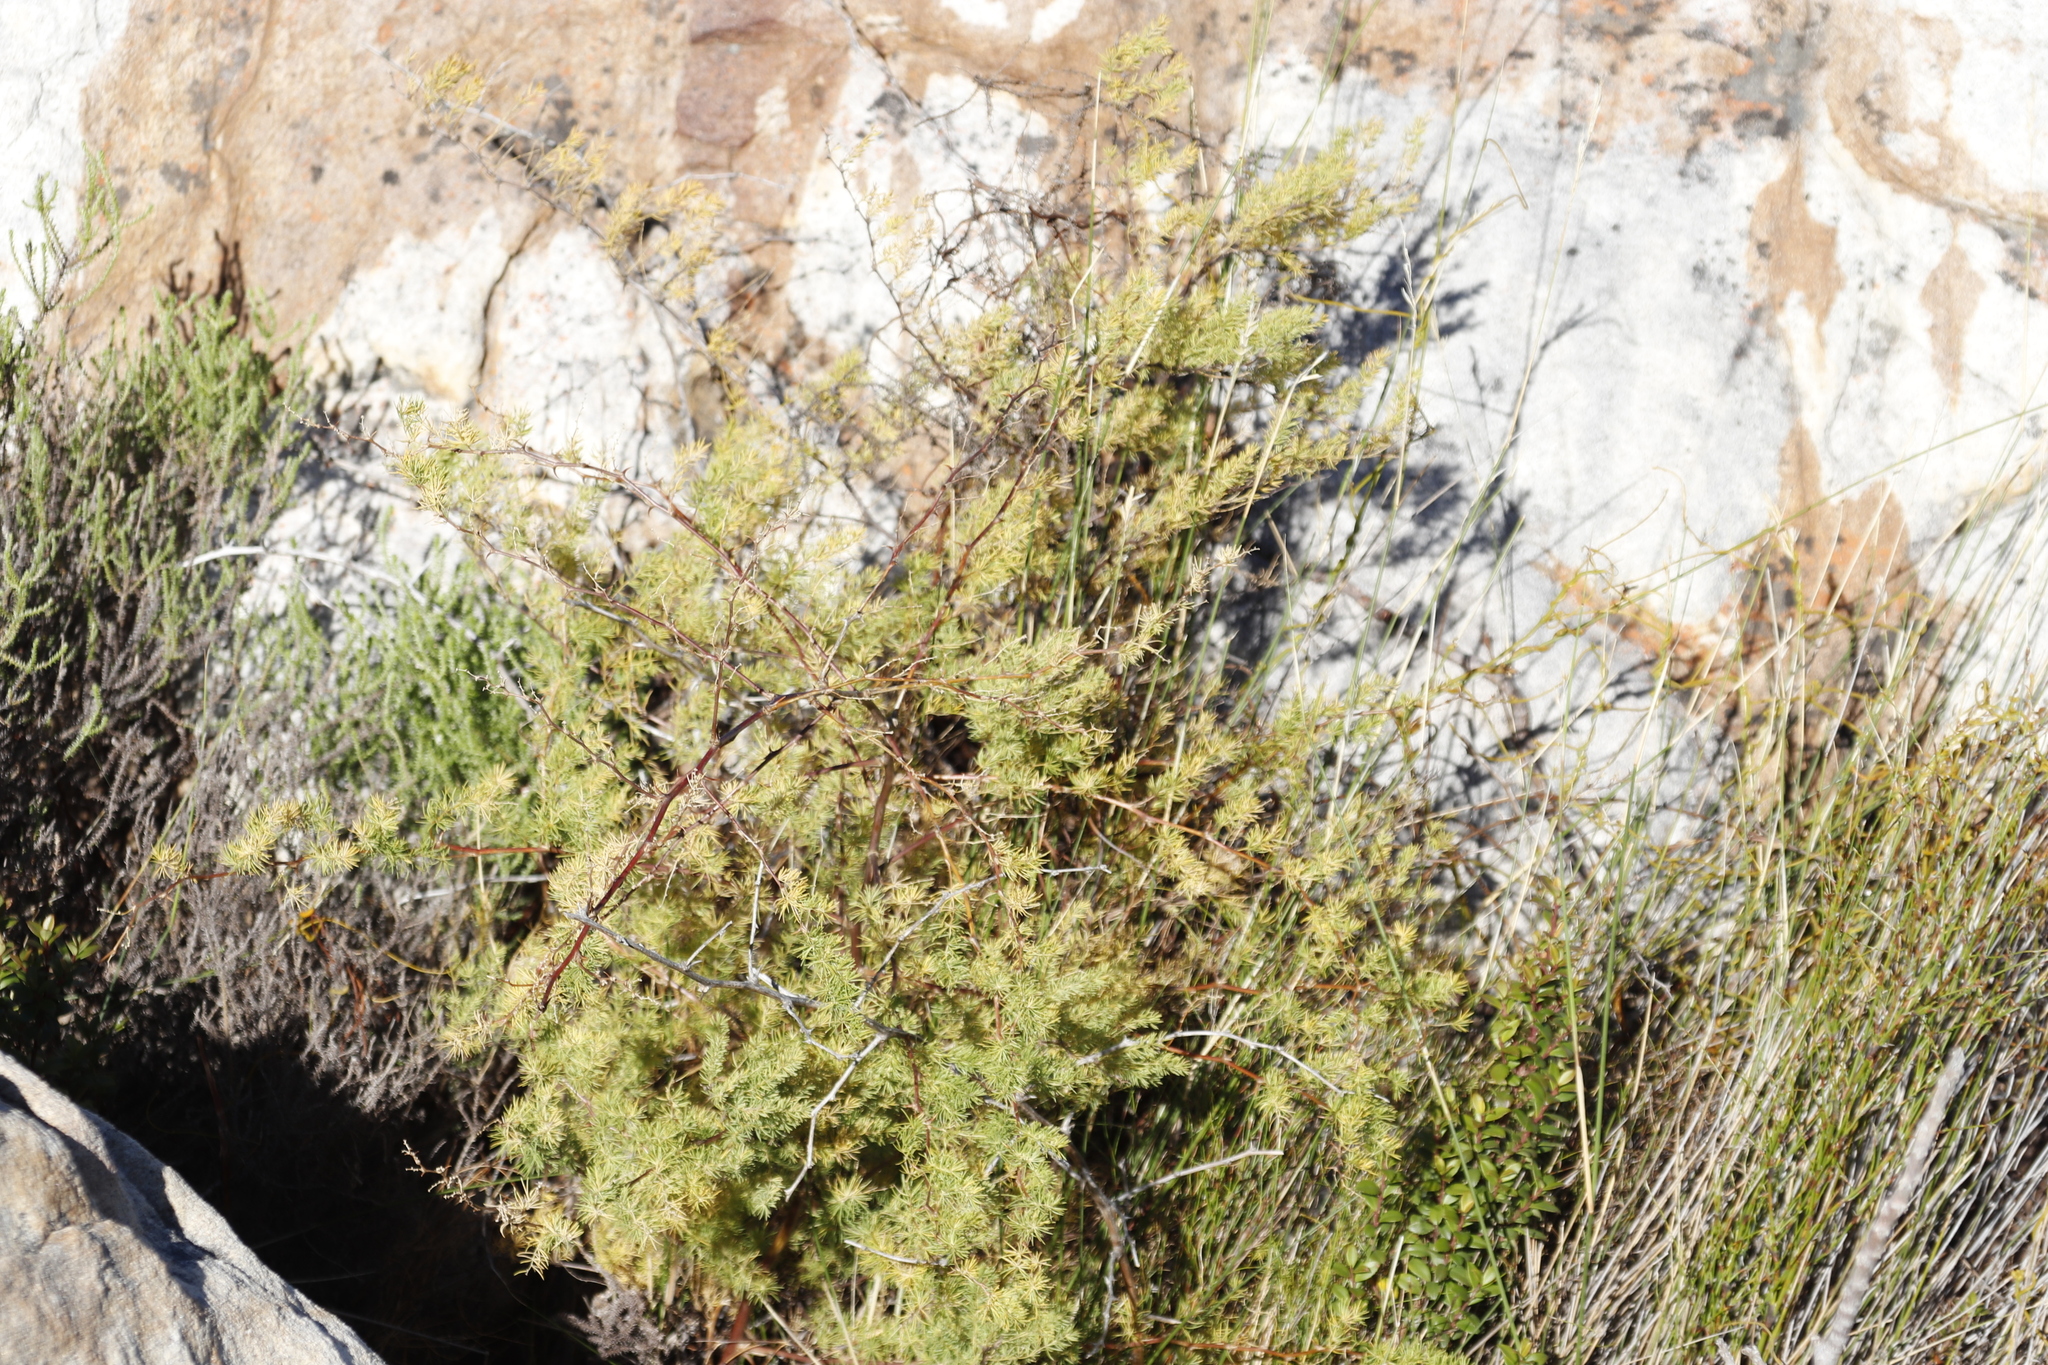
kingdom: Plantae
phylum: Tracheophyta
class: Liliopsida
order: Asparagales
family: Asparagaceae
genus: Asparagus
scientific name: Asparagus rubicundus
